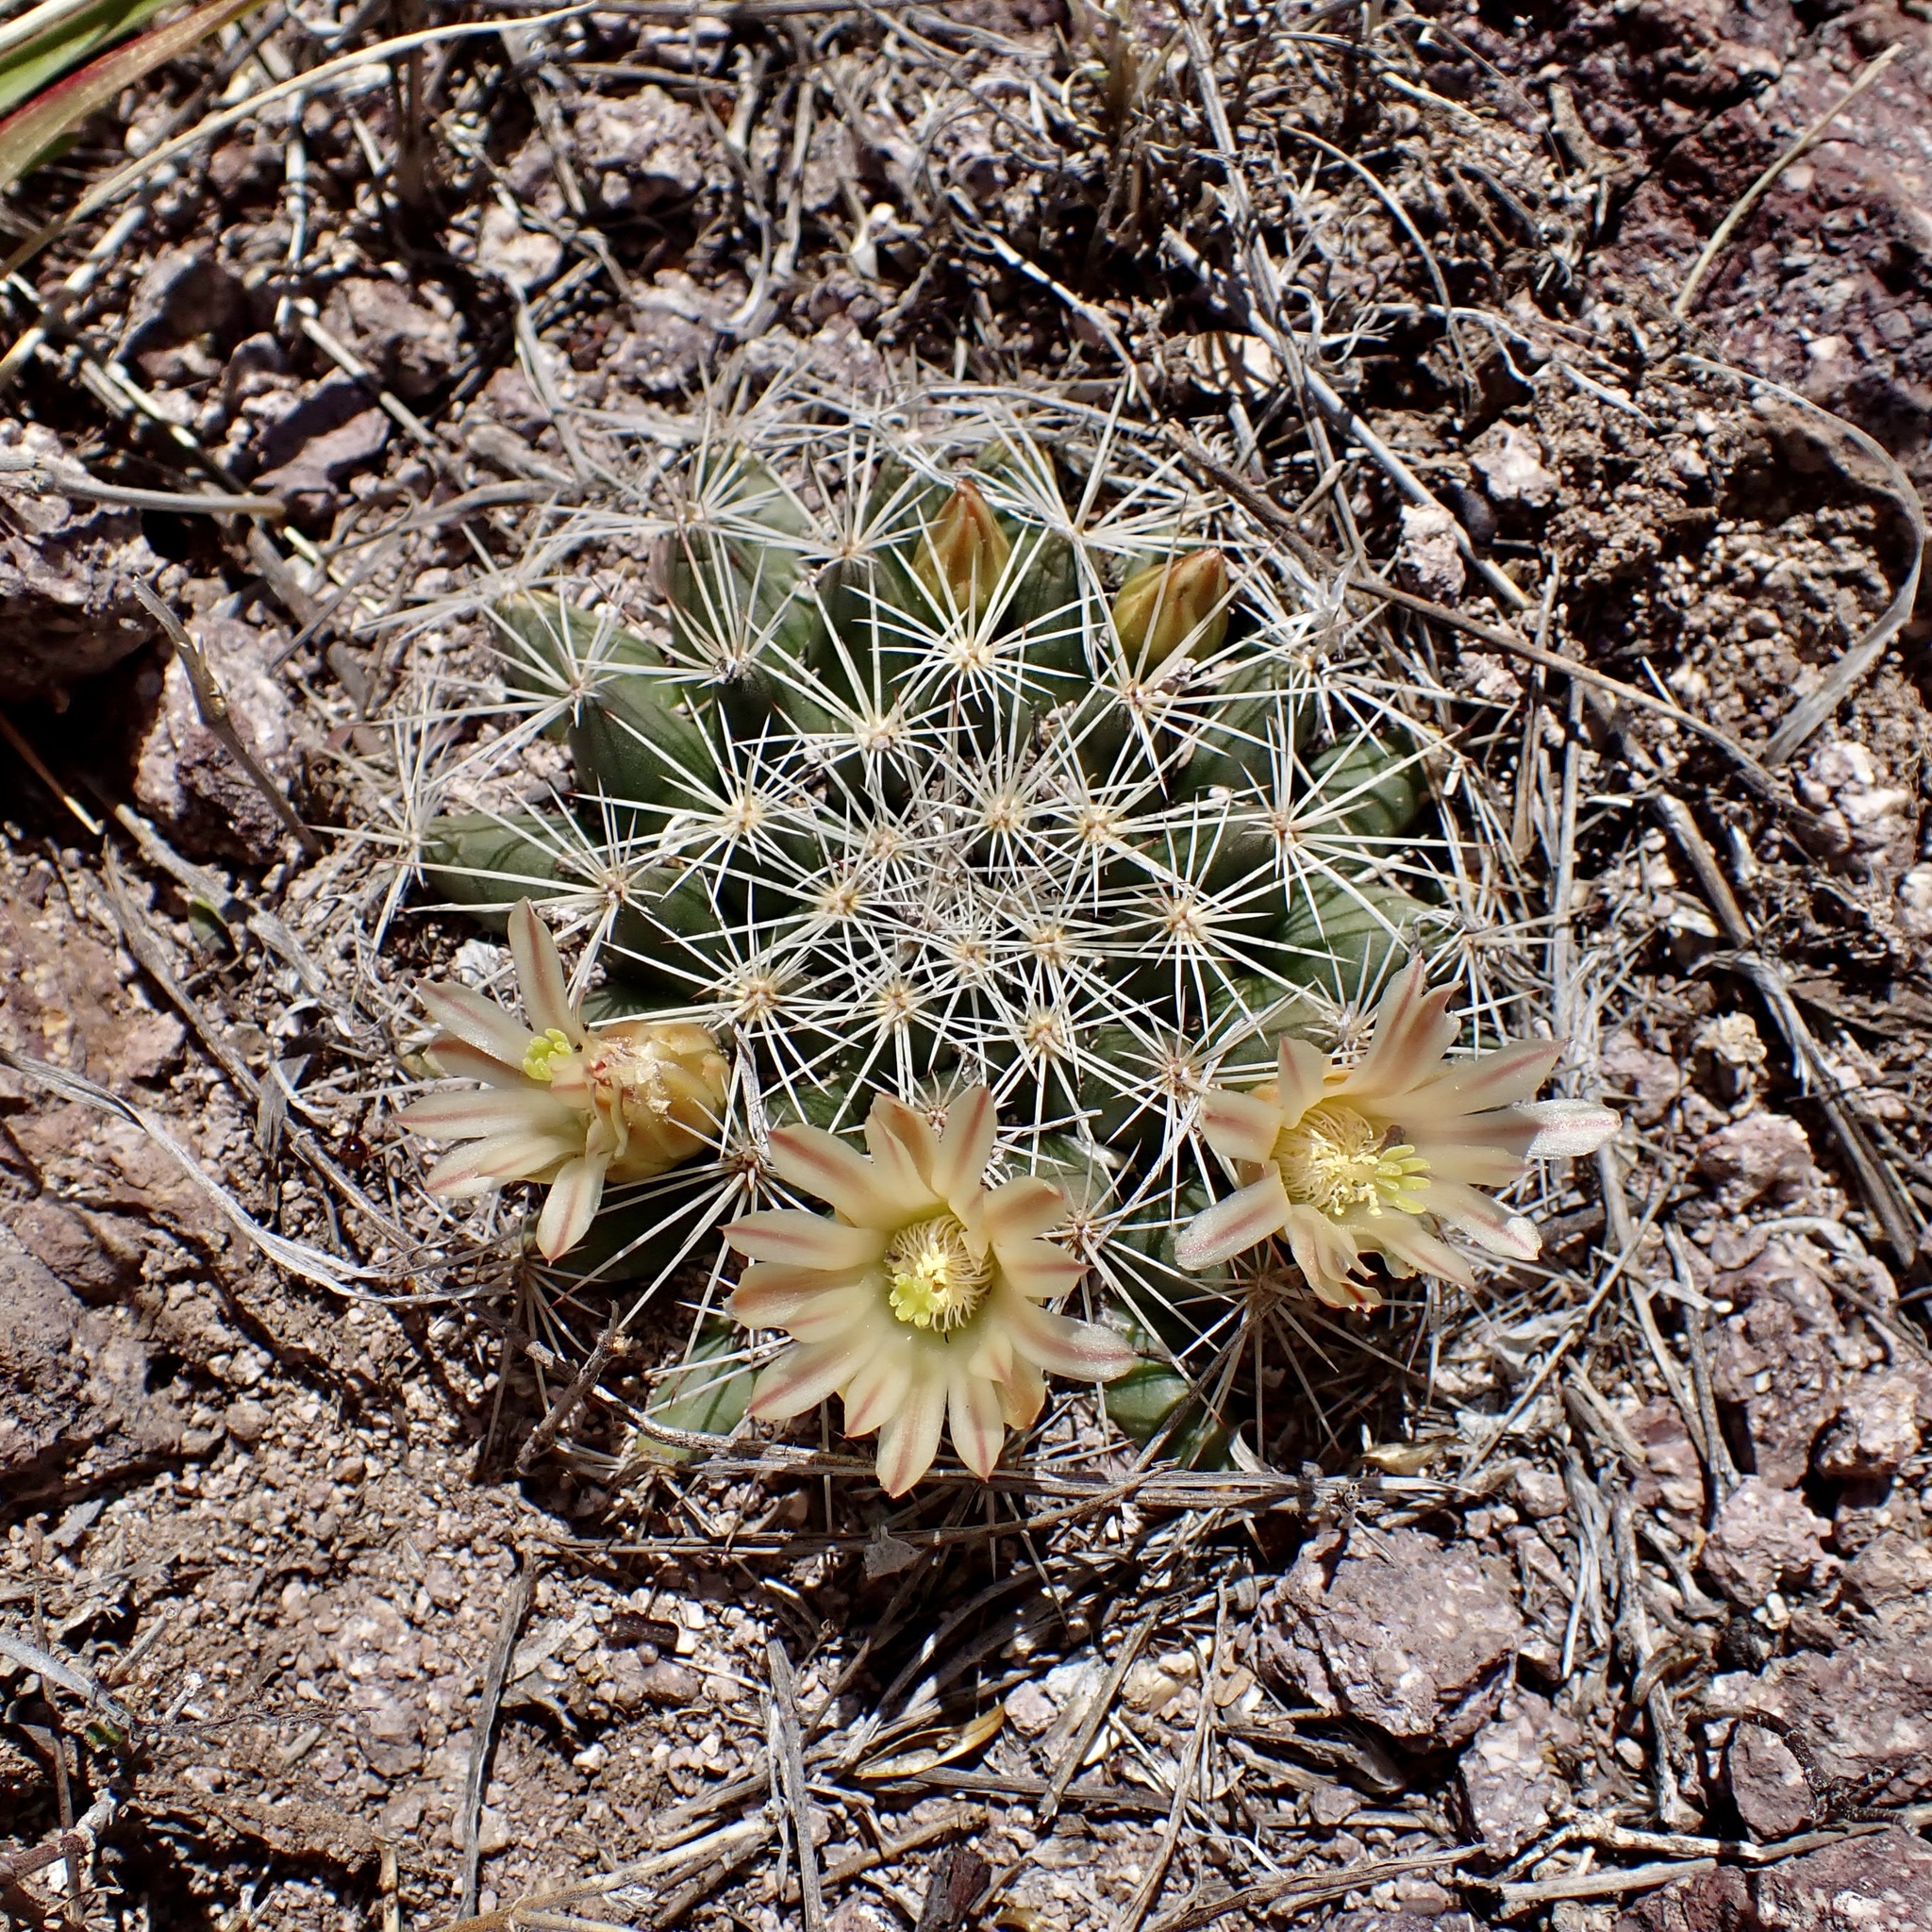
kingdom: Plantae
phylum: Tracheophyta
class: Magnoliopsida
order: Caryophyllales
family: Cactaceae
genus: Mammillaria
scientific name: Mammillaria heyderi
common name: Little nipple cactus
